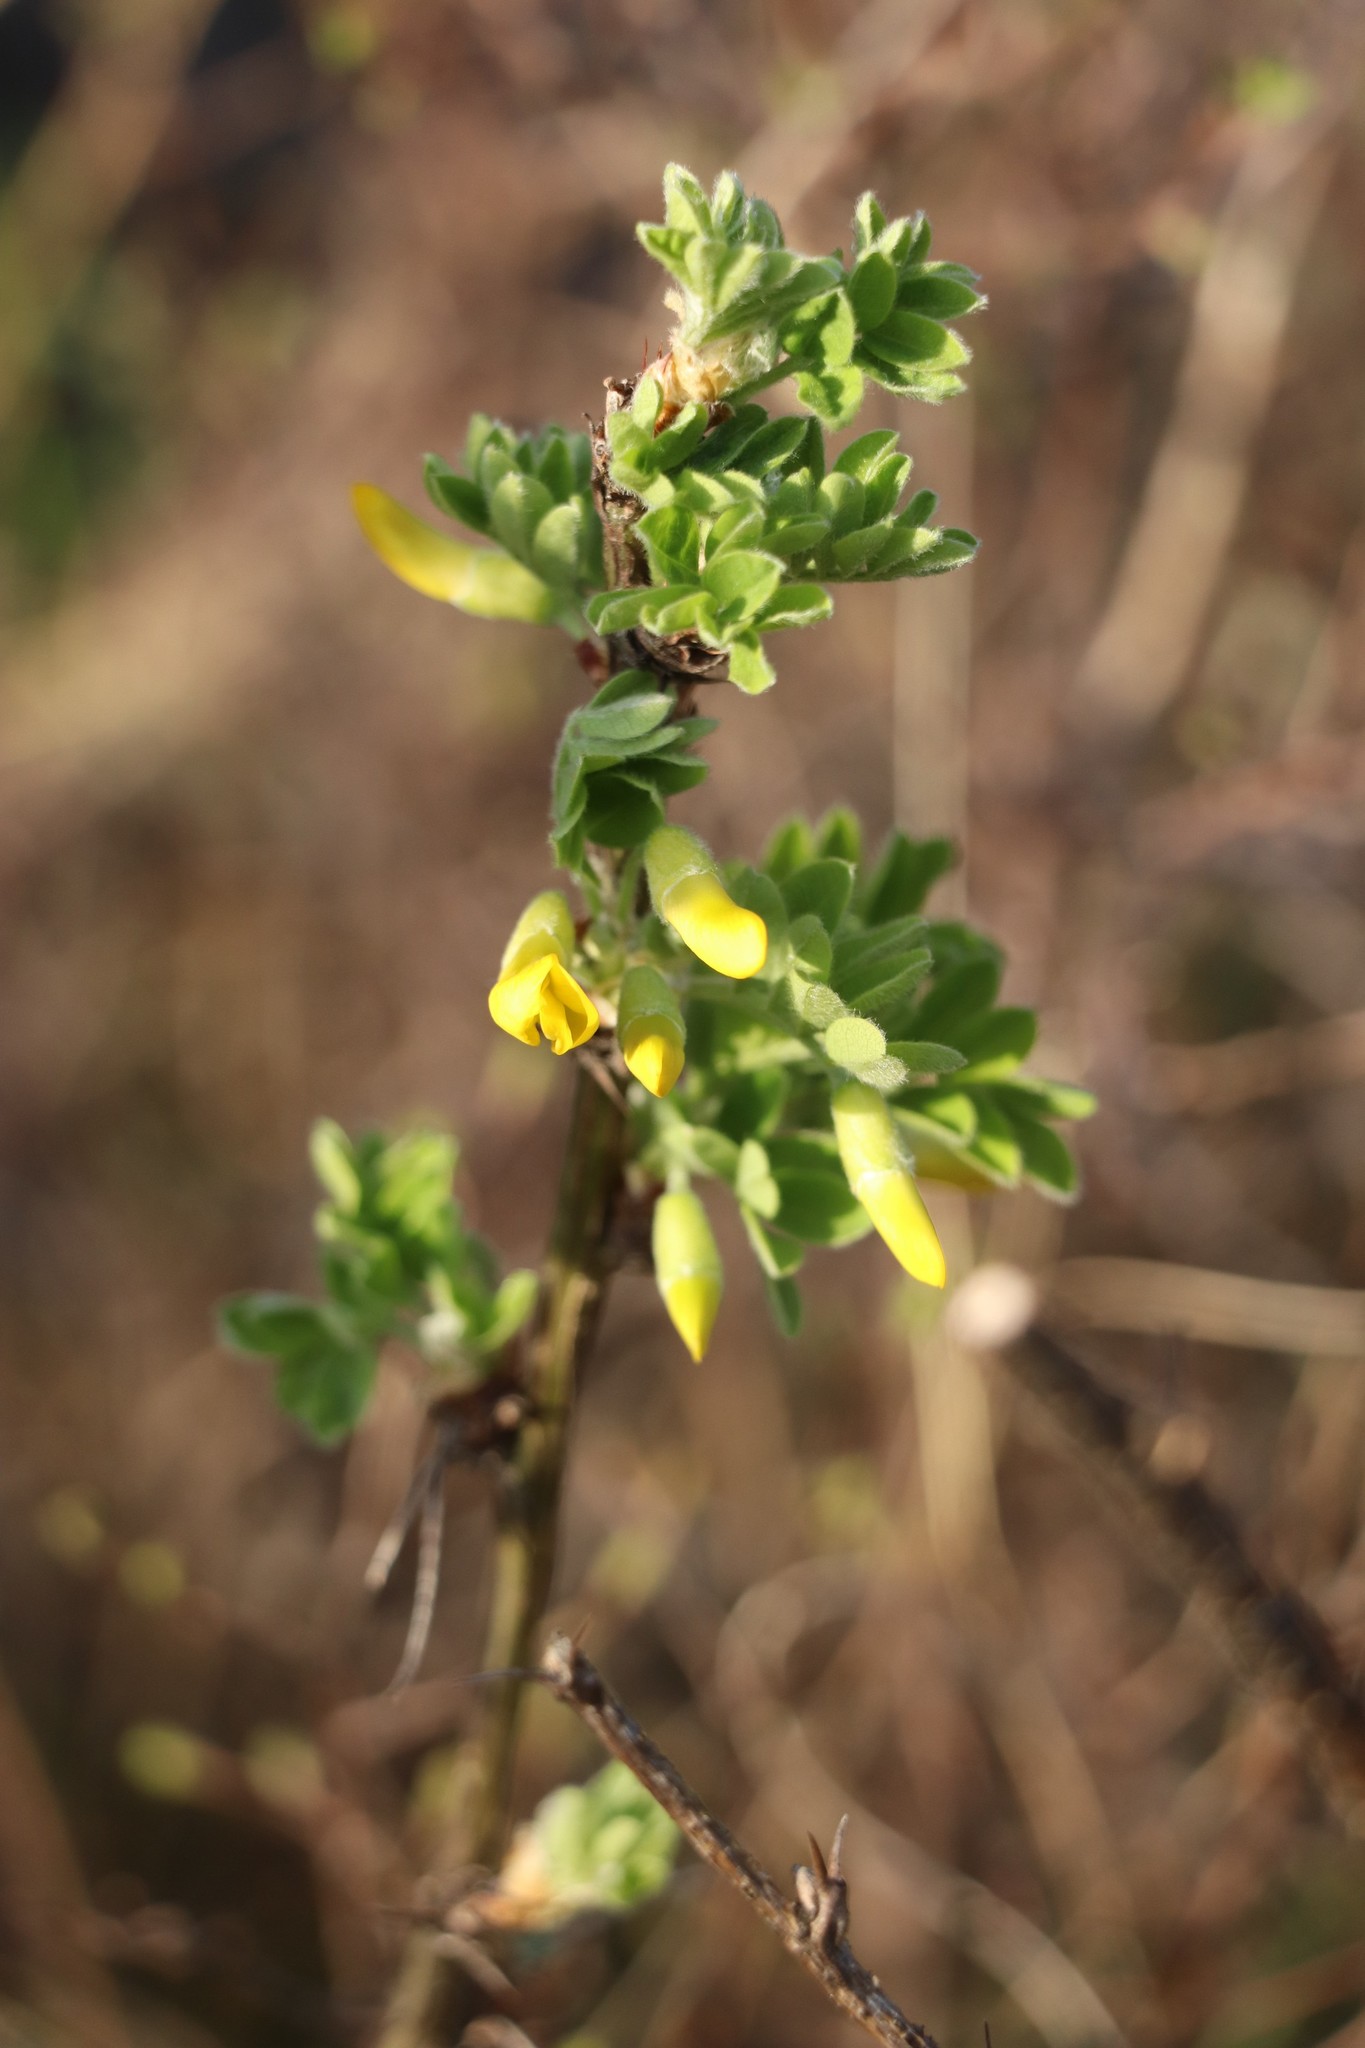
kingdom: Plantae
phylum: Tracheophyta
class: Magnoliopsida
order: Fabales
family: Fabaceae
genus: Caragana
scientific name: Caragana arborescens
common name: Siberian peashrub
